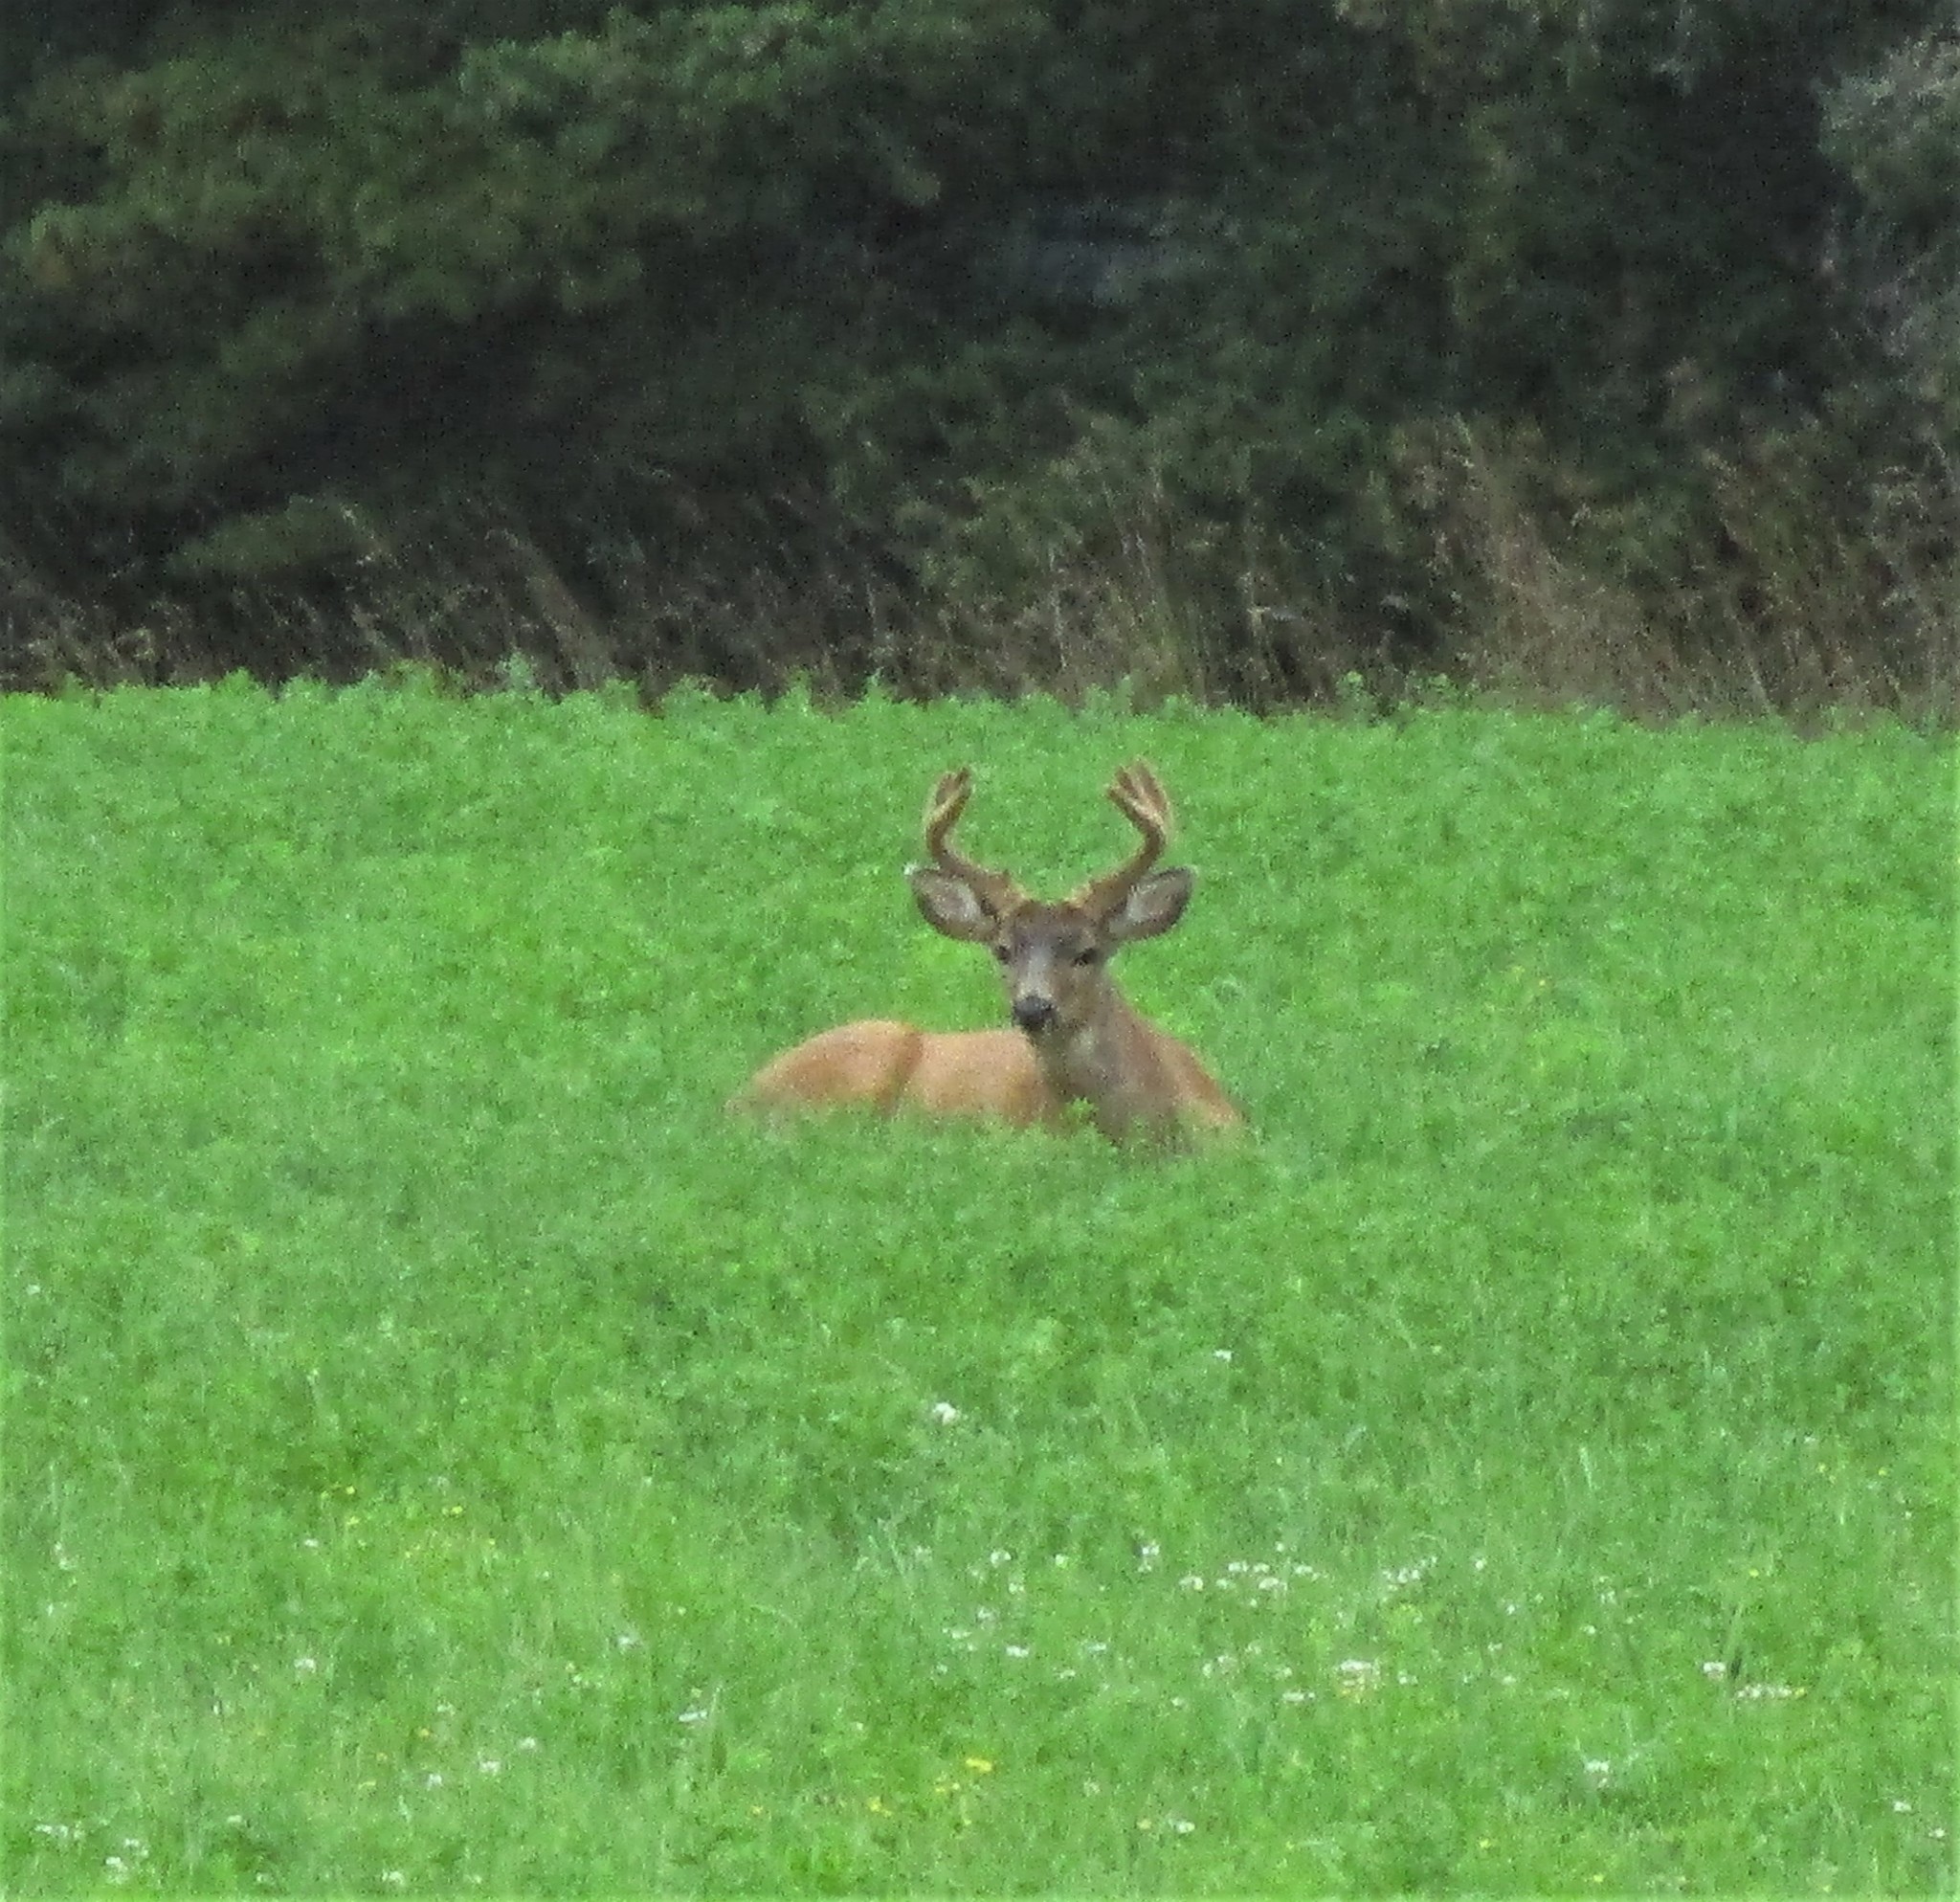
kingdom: Animalia
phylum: Chordata
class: Mammalia
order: Artiodactyla
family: Cervidae
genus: Odocoileus
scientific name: Odocoileus hemionus
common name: Mule deer
